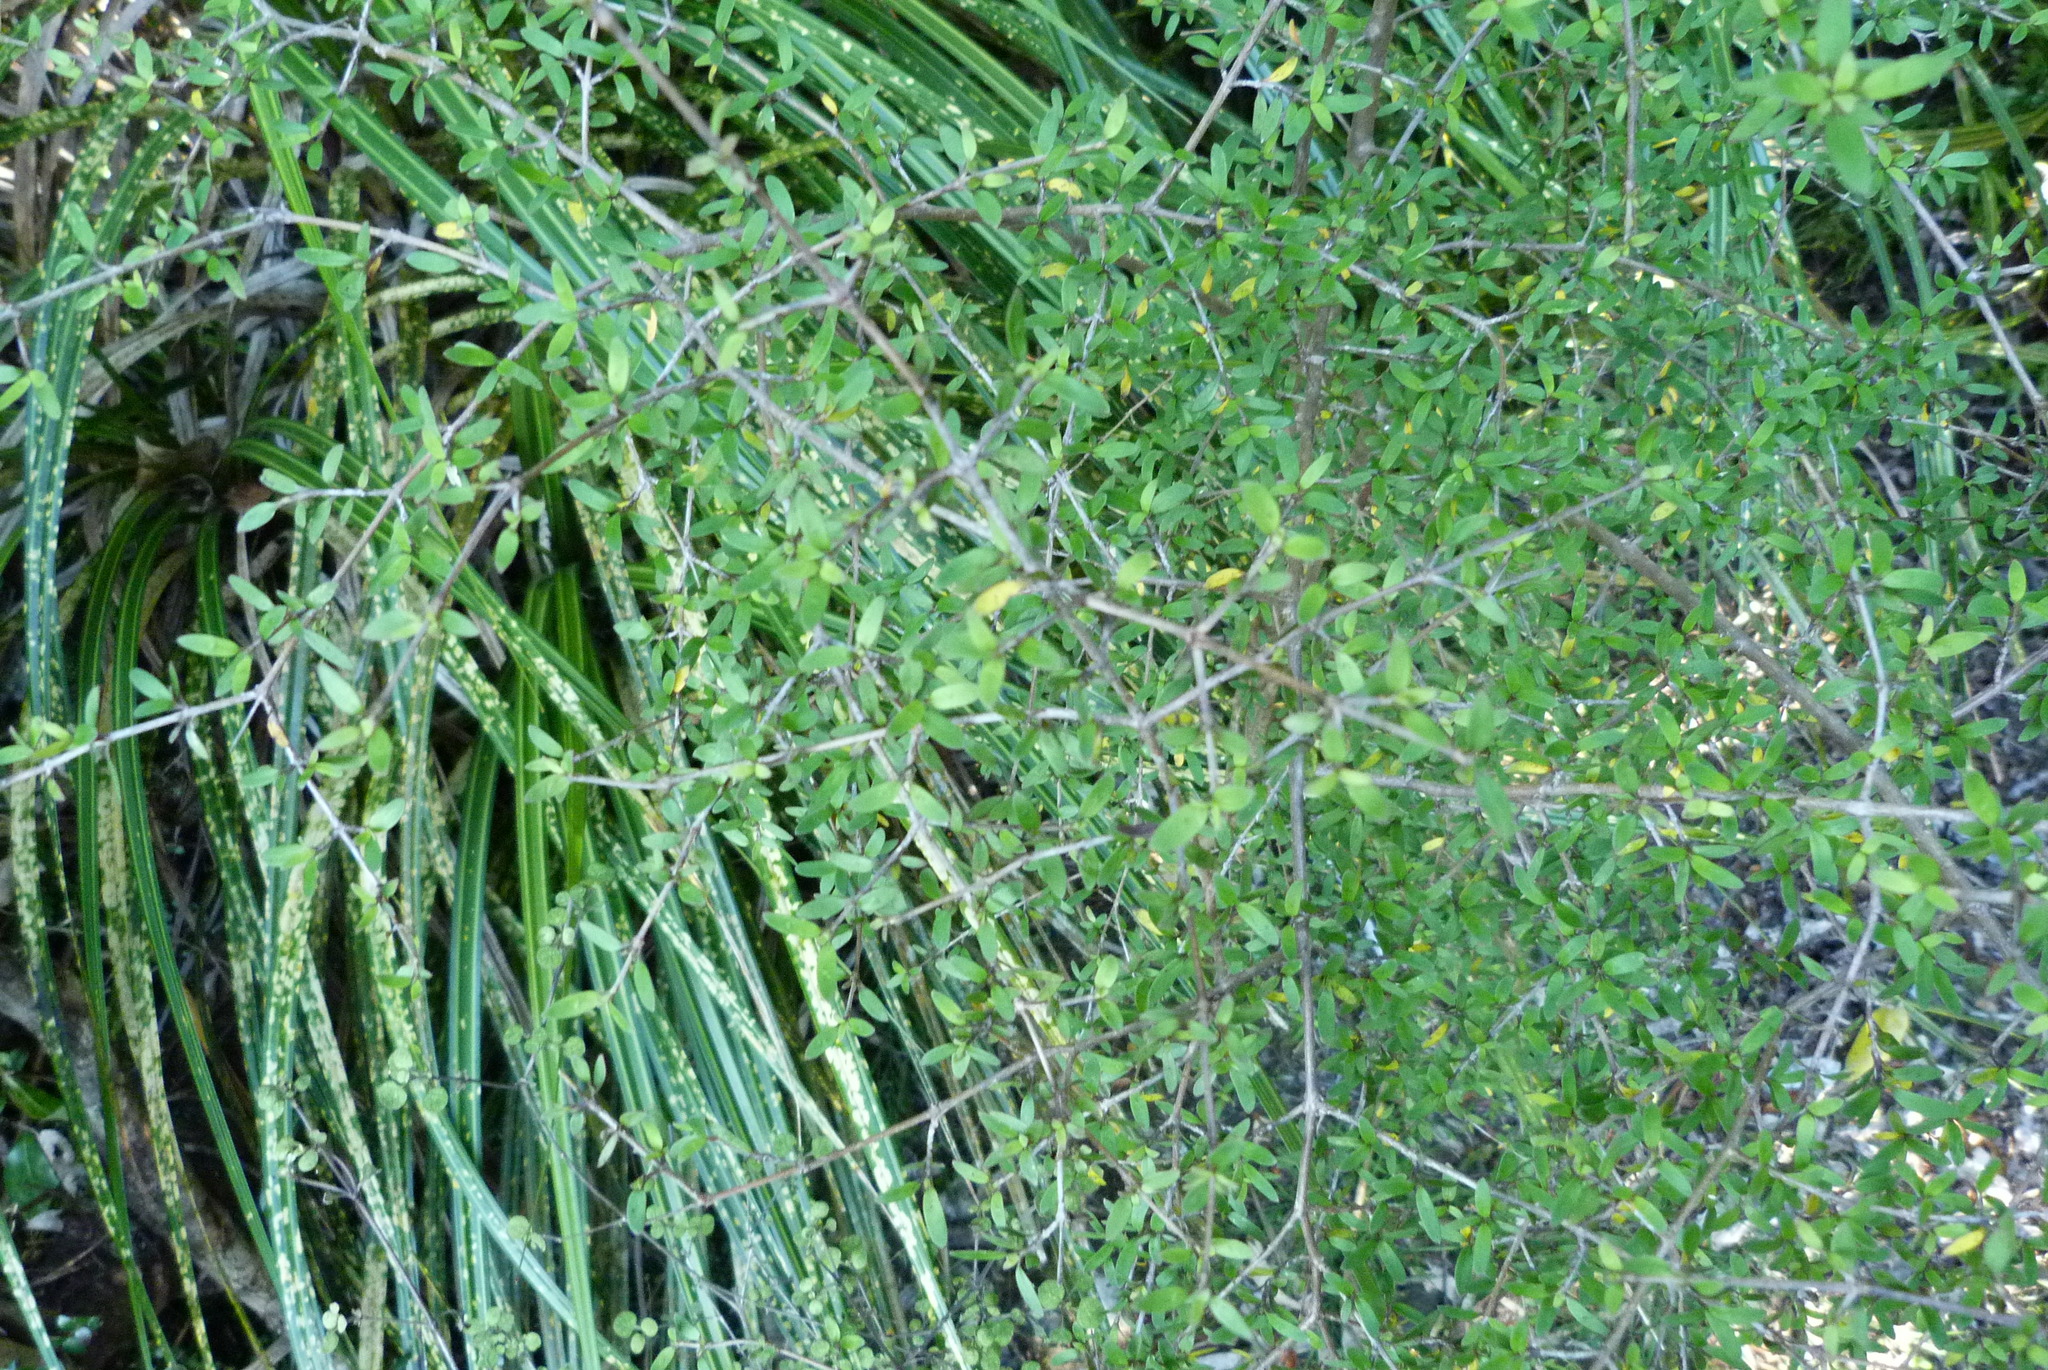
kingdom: Plantae
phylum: Tracheophyta
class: Magnoliopsida
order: Gentianales
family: Rubiaceae
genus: Coprosma
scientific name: Coprosma propinqua
